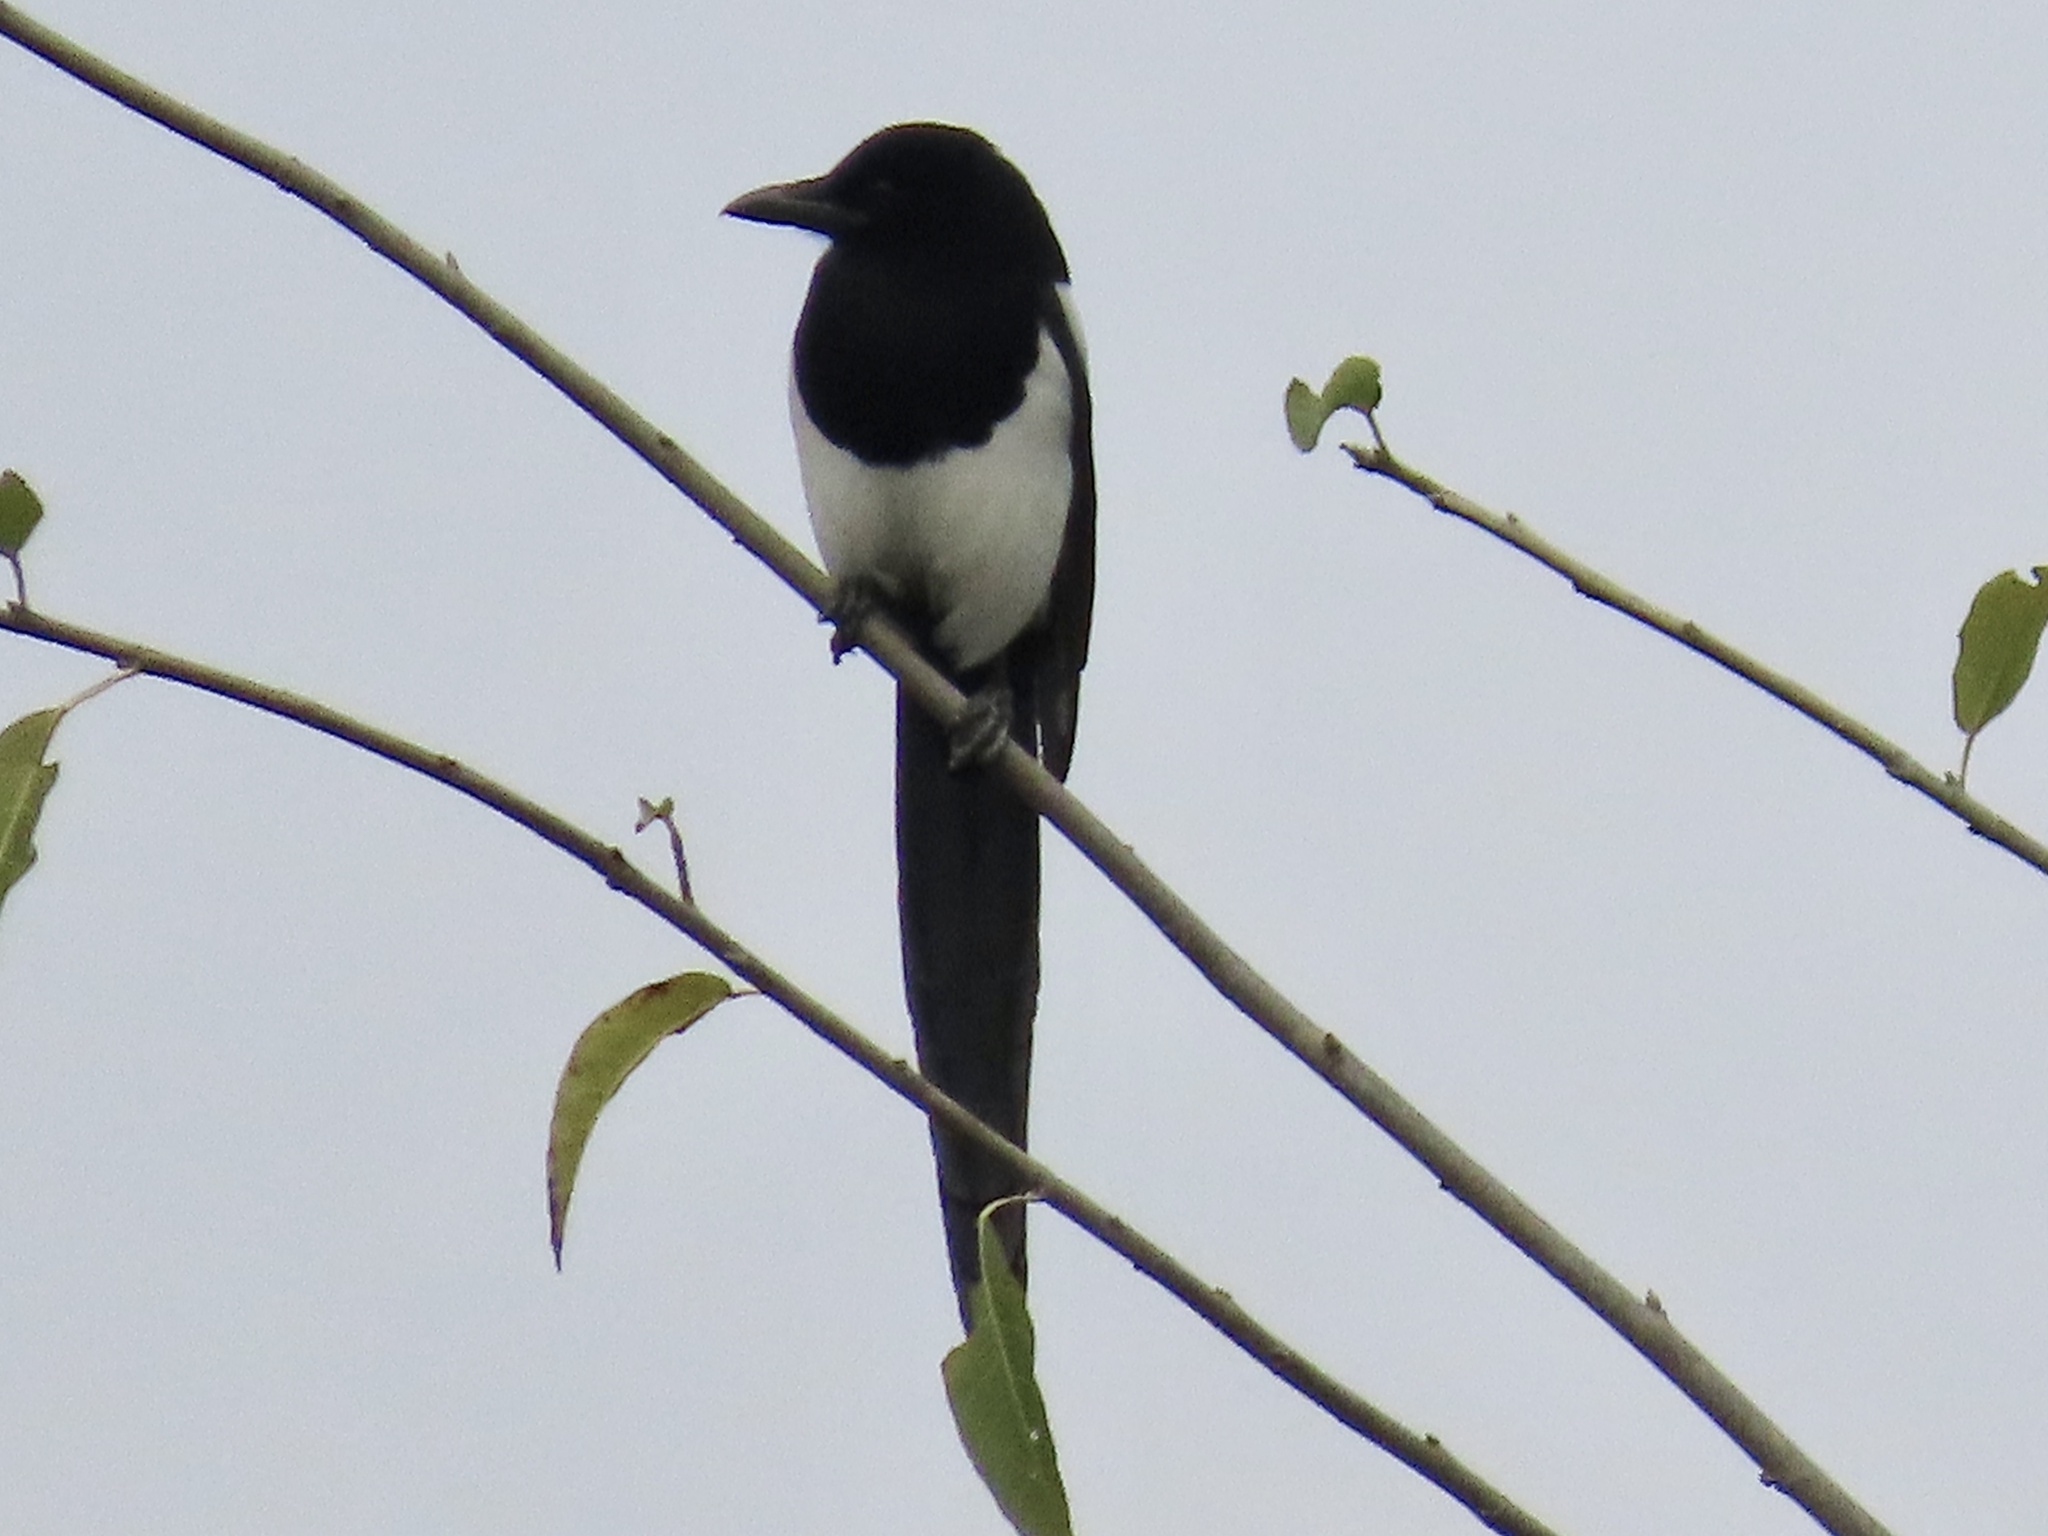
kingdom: Animalia
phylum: Chordata
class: Aves
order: Passeriformes
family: Corvidae
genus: Pica
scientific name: Pica serica
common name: Oriental magpie
